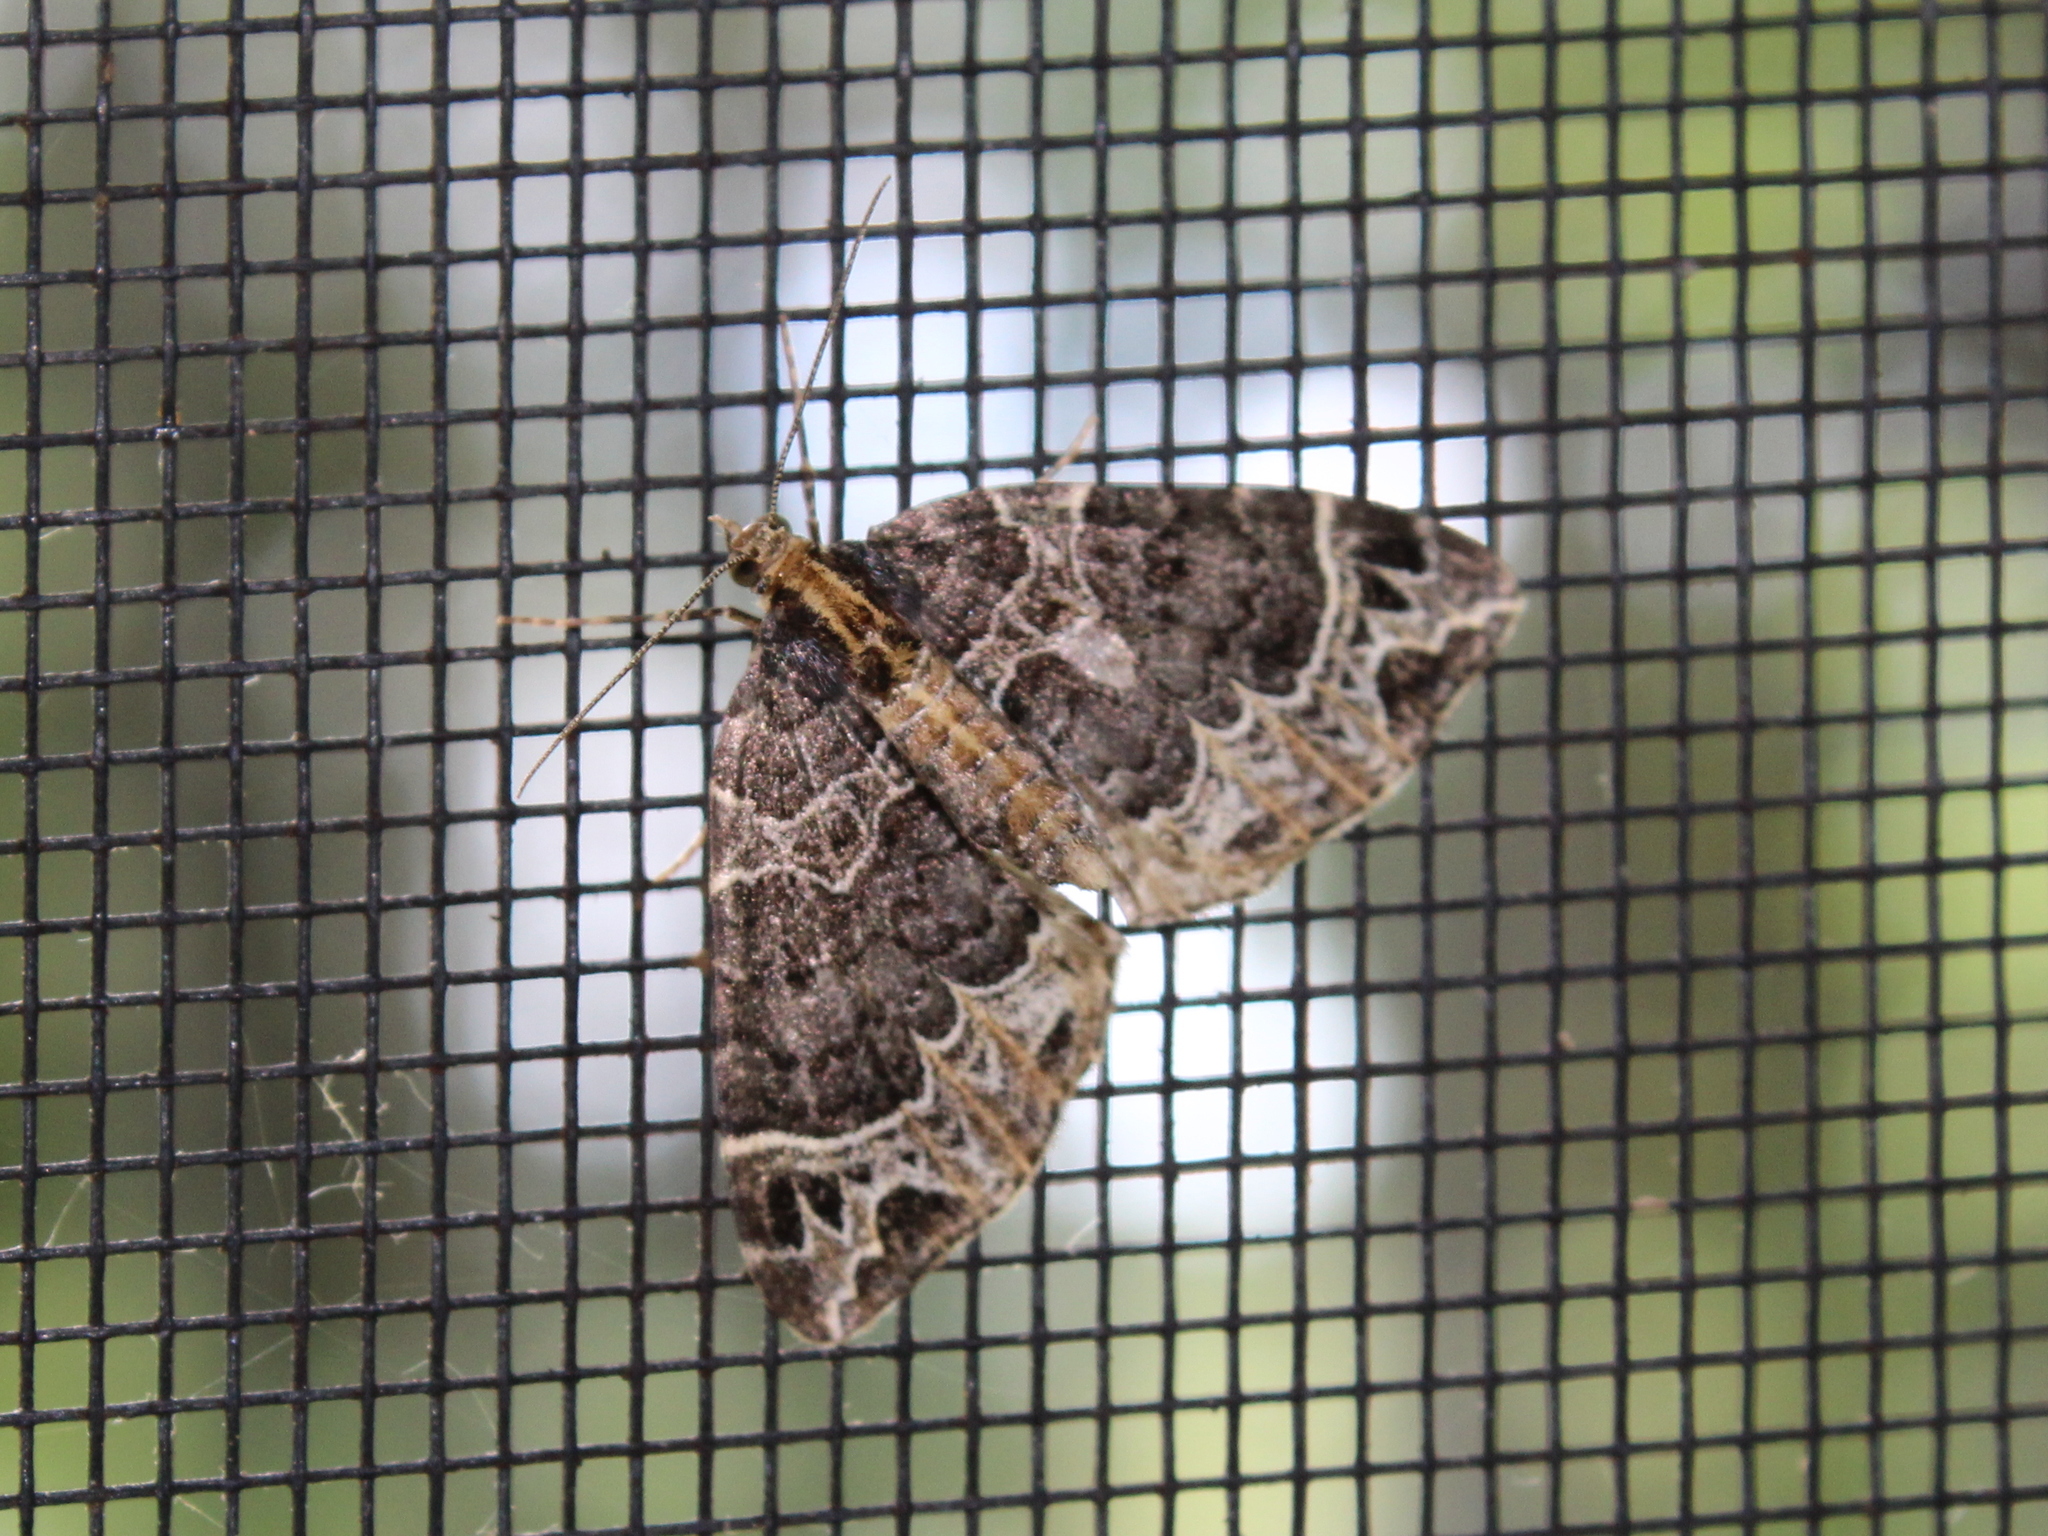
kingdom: Animalia
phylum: Arthropoda
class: Insecta
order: Lepidoptera
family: Geometridae
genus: Ecliptopera
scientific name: Ecliptopera silaceata
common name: Small phoenix
